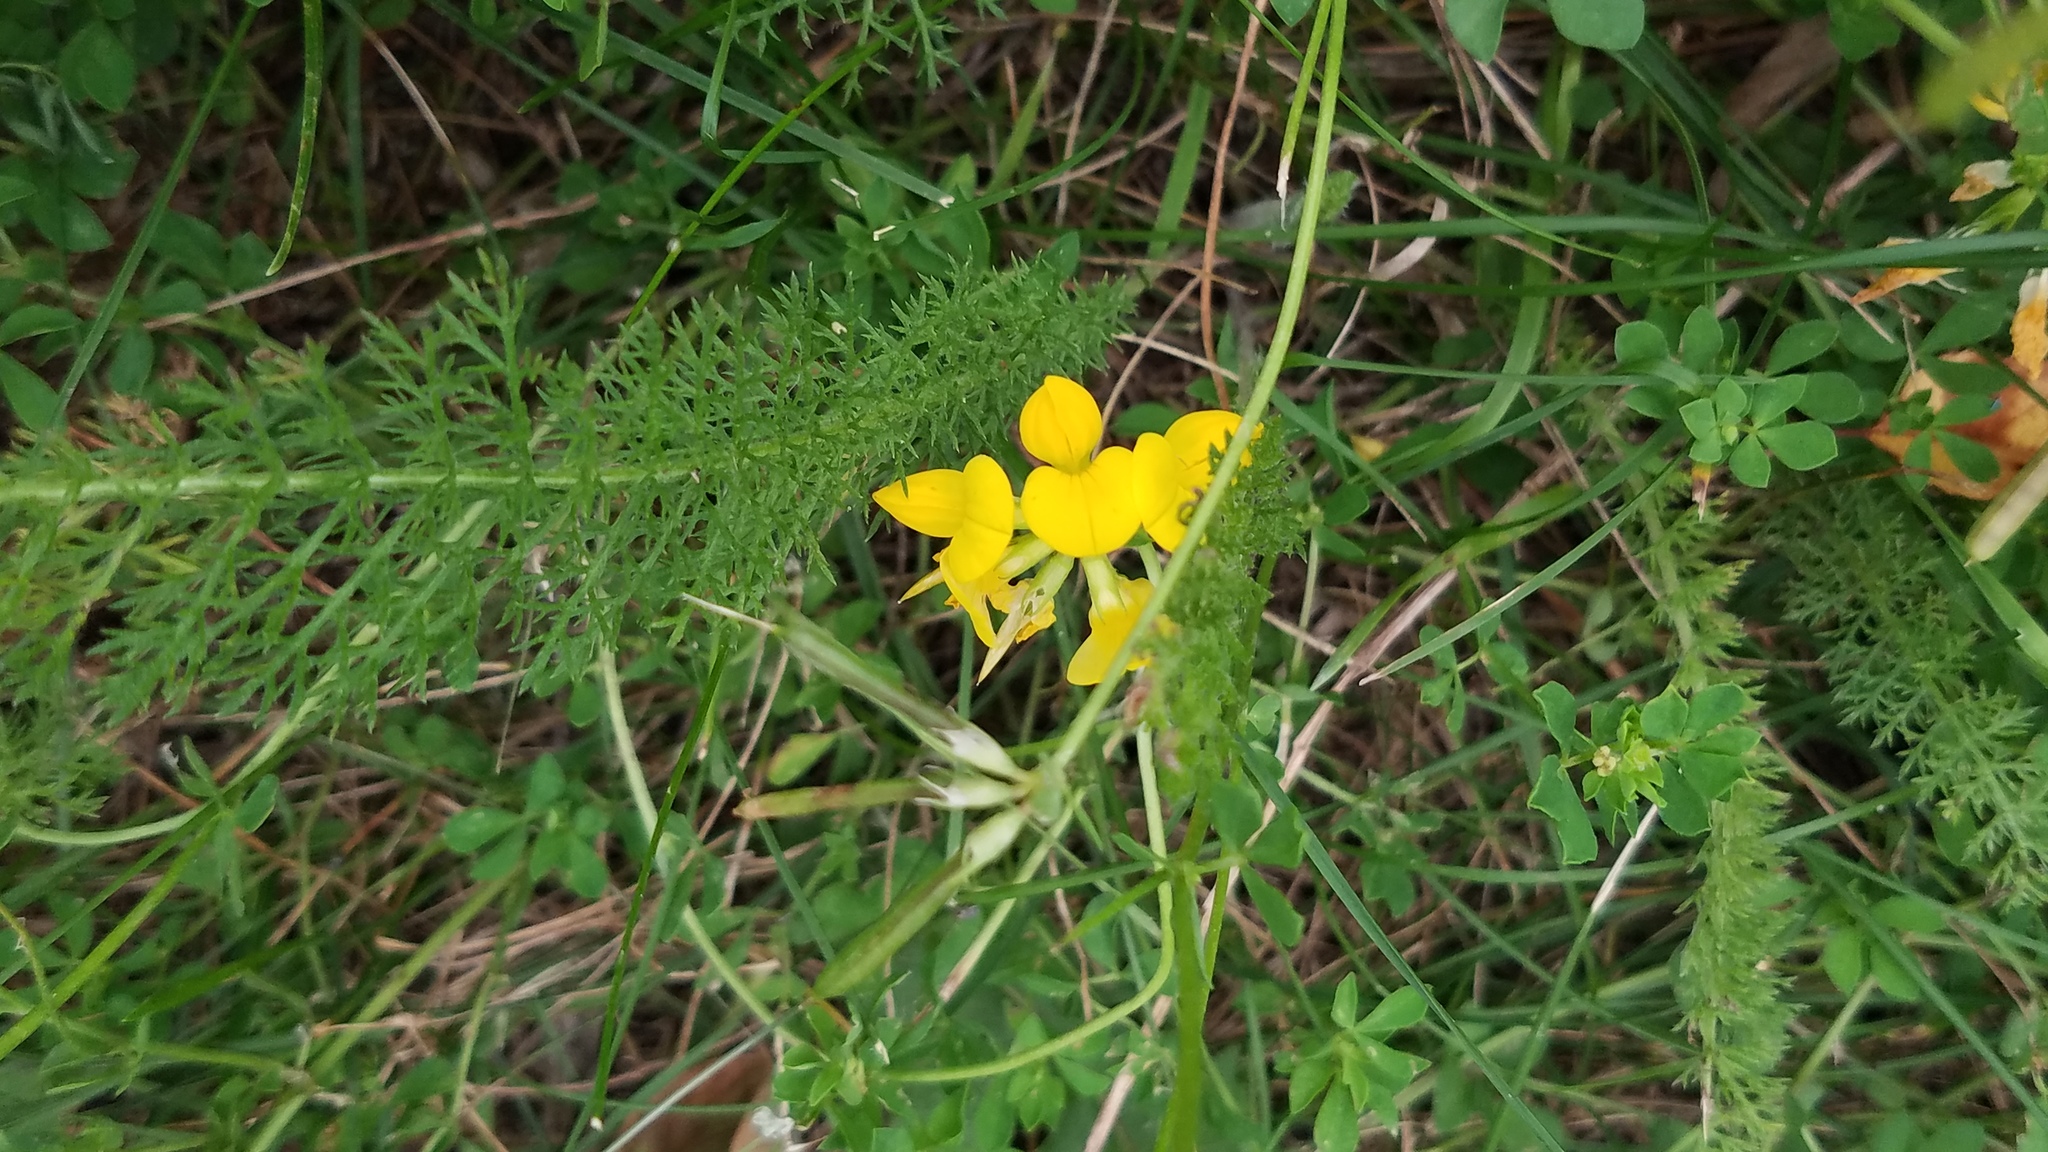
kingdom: Plantae
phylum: Tracheophyta
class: Magnoliopsida
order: Fabales
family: Fabaceae
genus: Lotus
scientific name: Lotus corniculatus
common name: Common bird's-foot-trefoil
